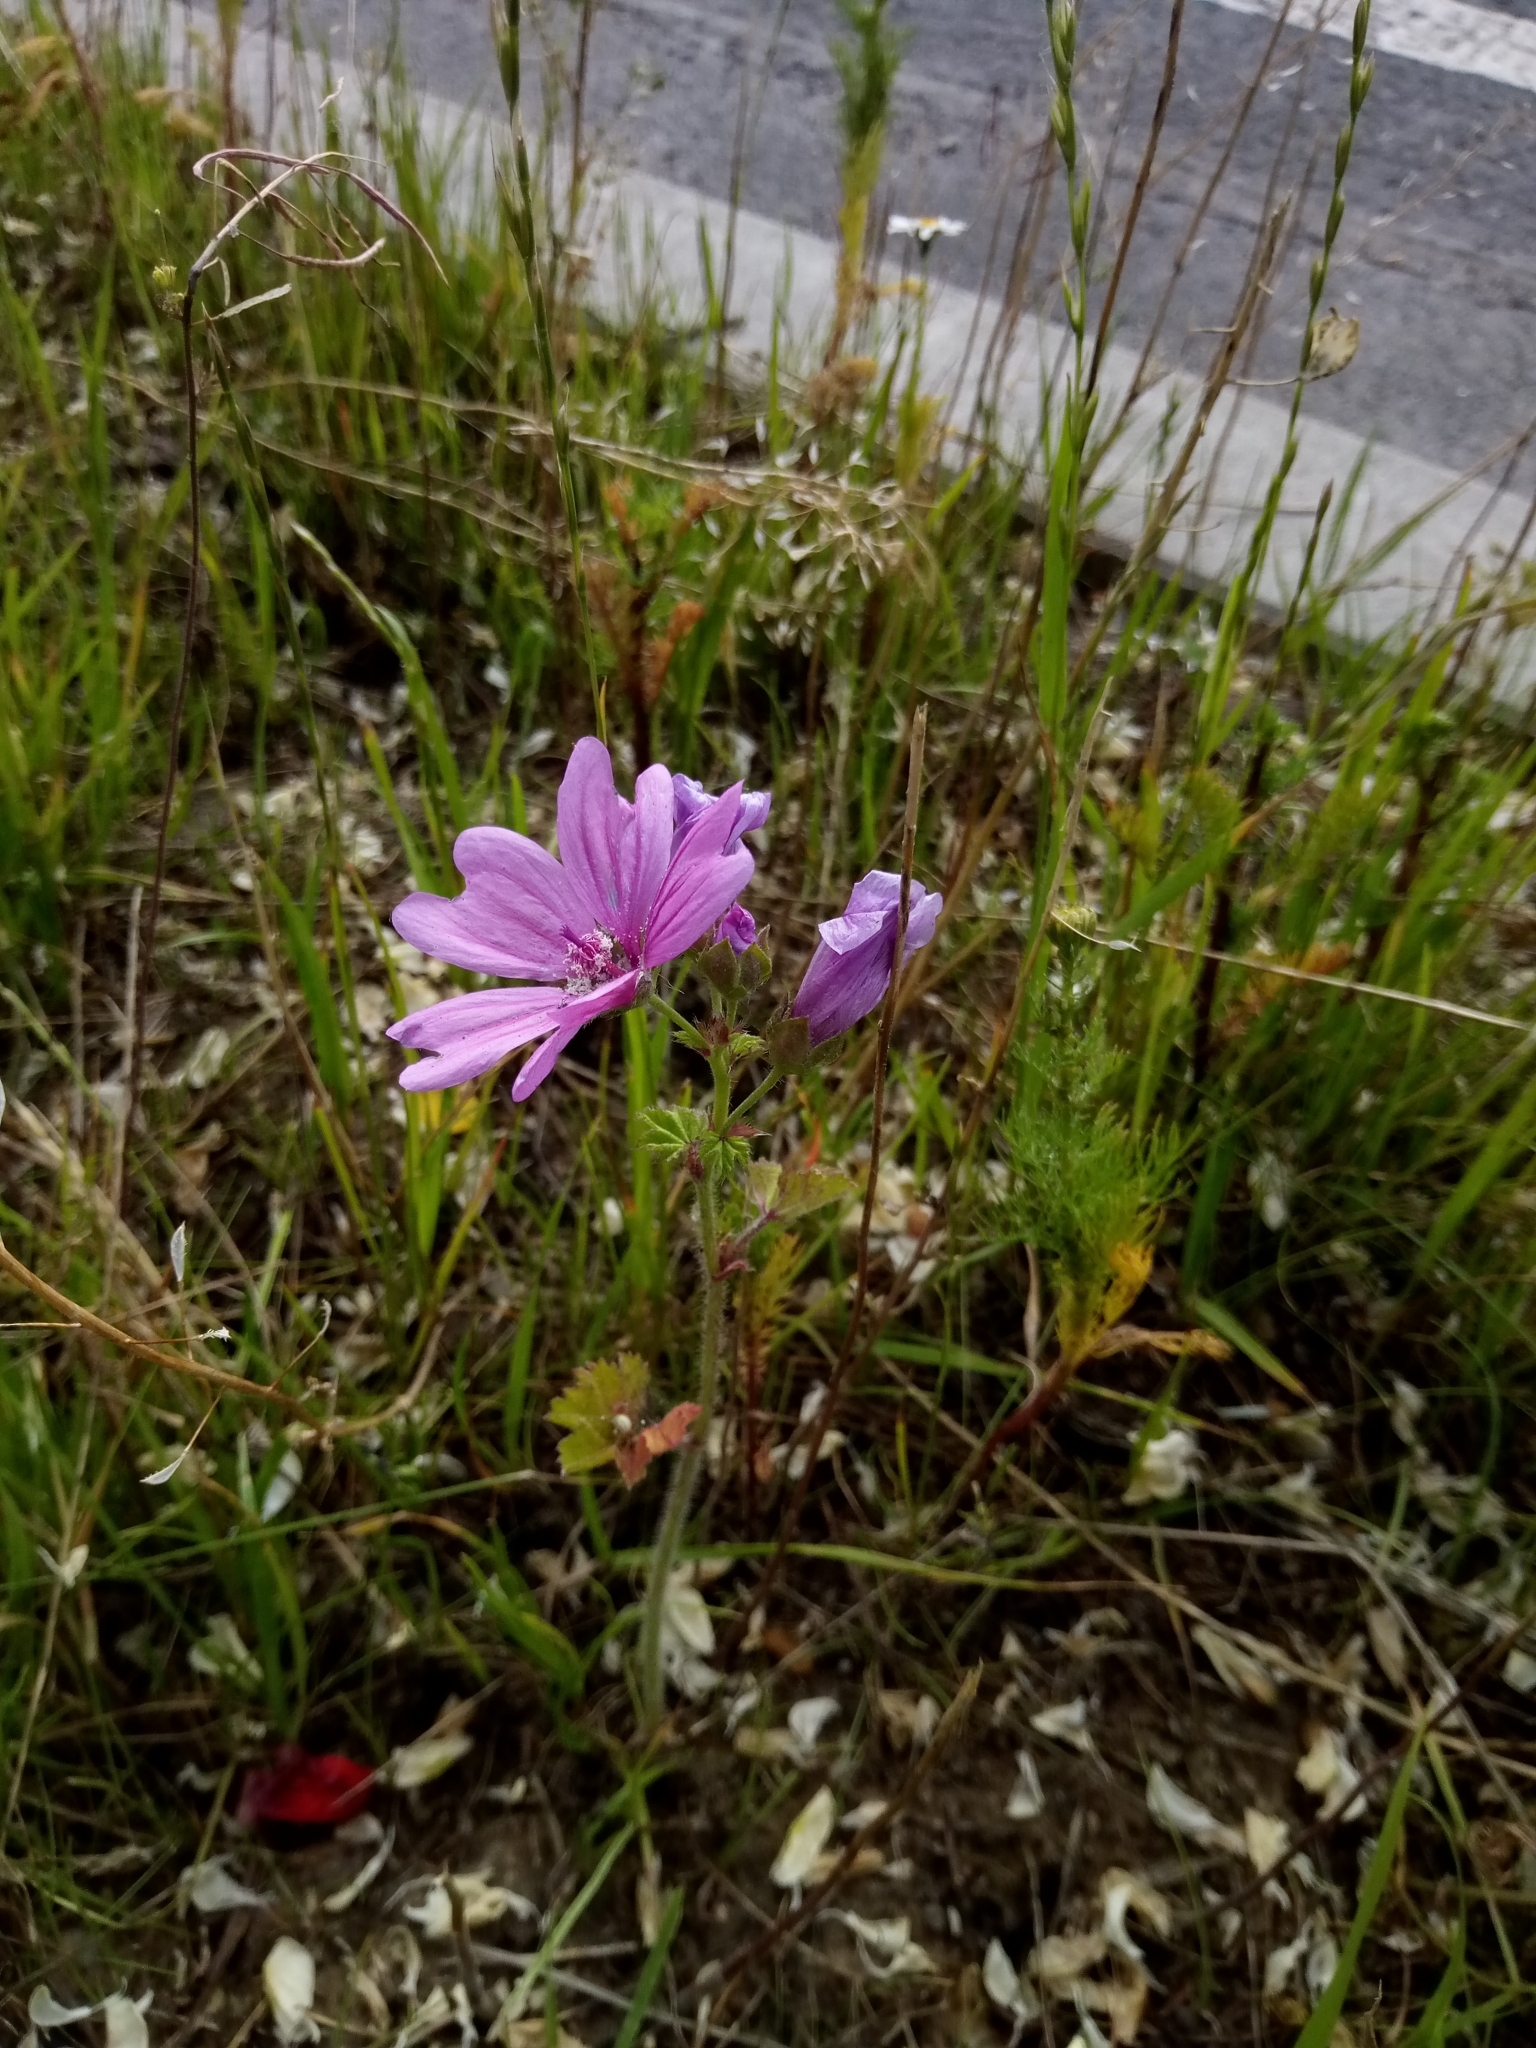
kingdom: Plantae
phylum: Tracheophyta
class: Magnoliopsida
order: Malvales
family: Malvaceae
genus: Malva
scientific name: Malva sylvestris
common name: Common mallow
